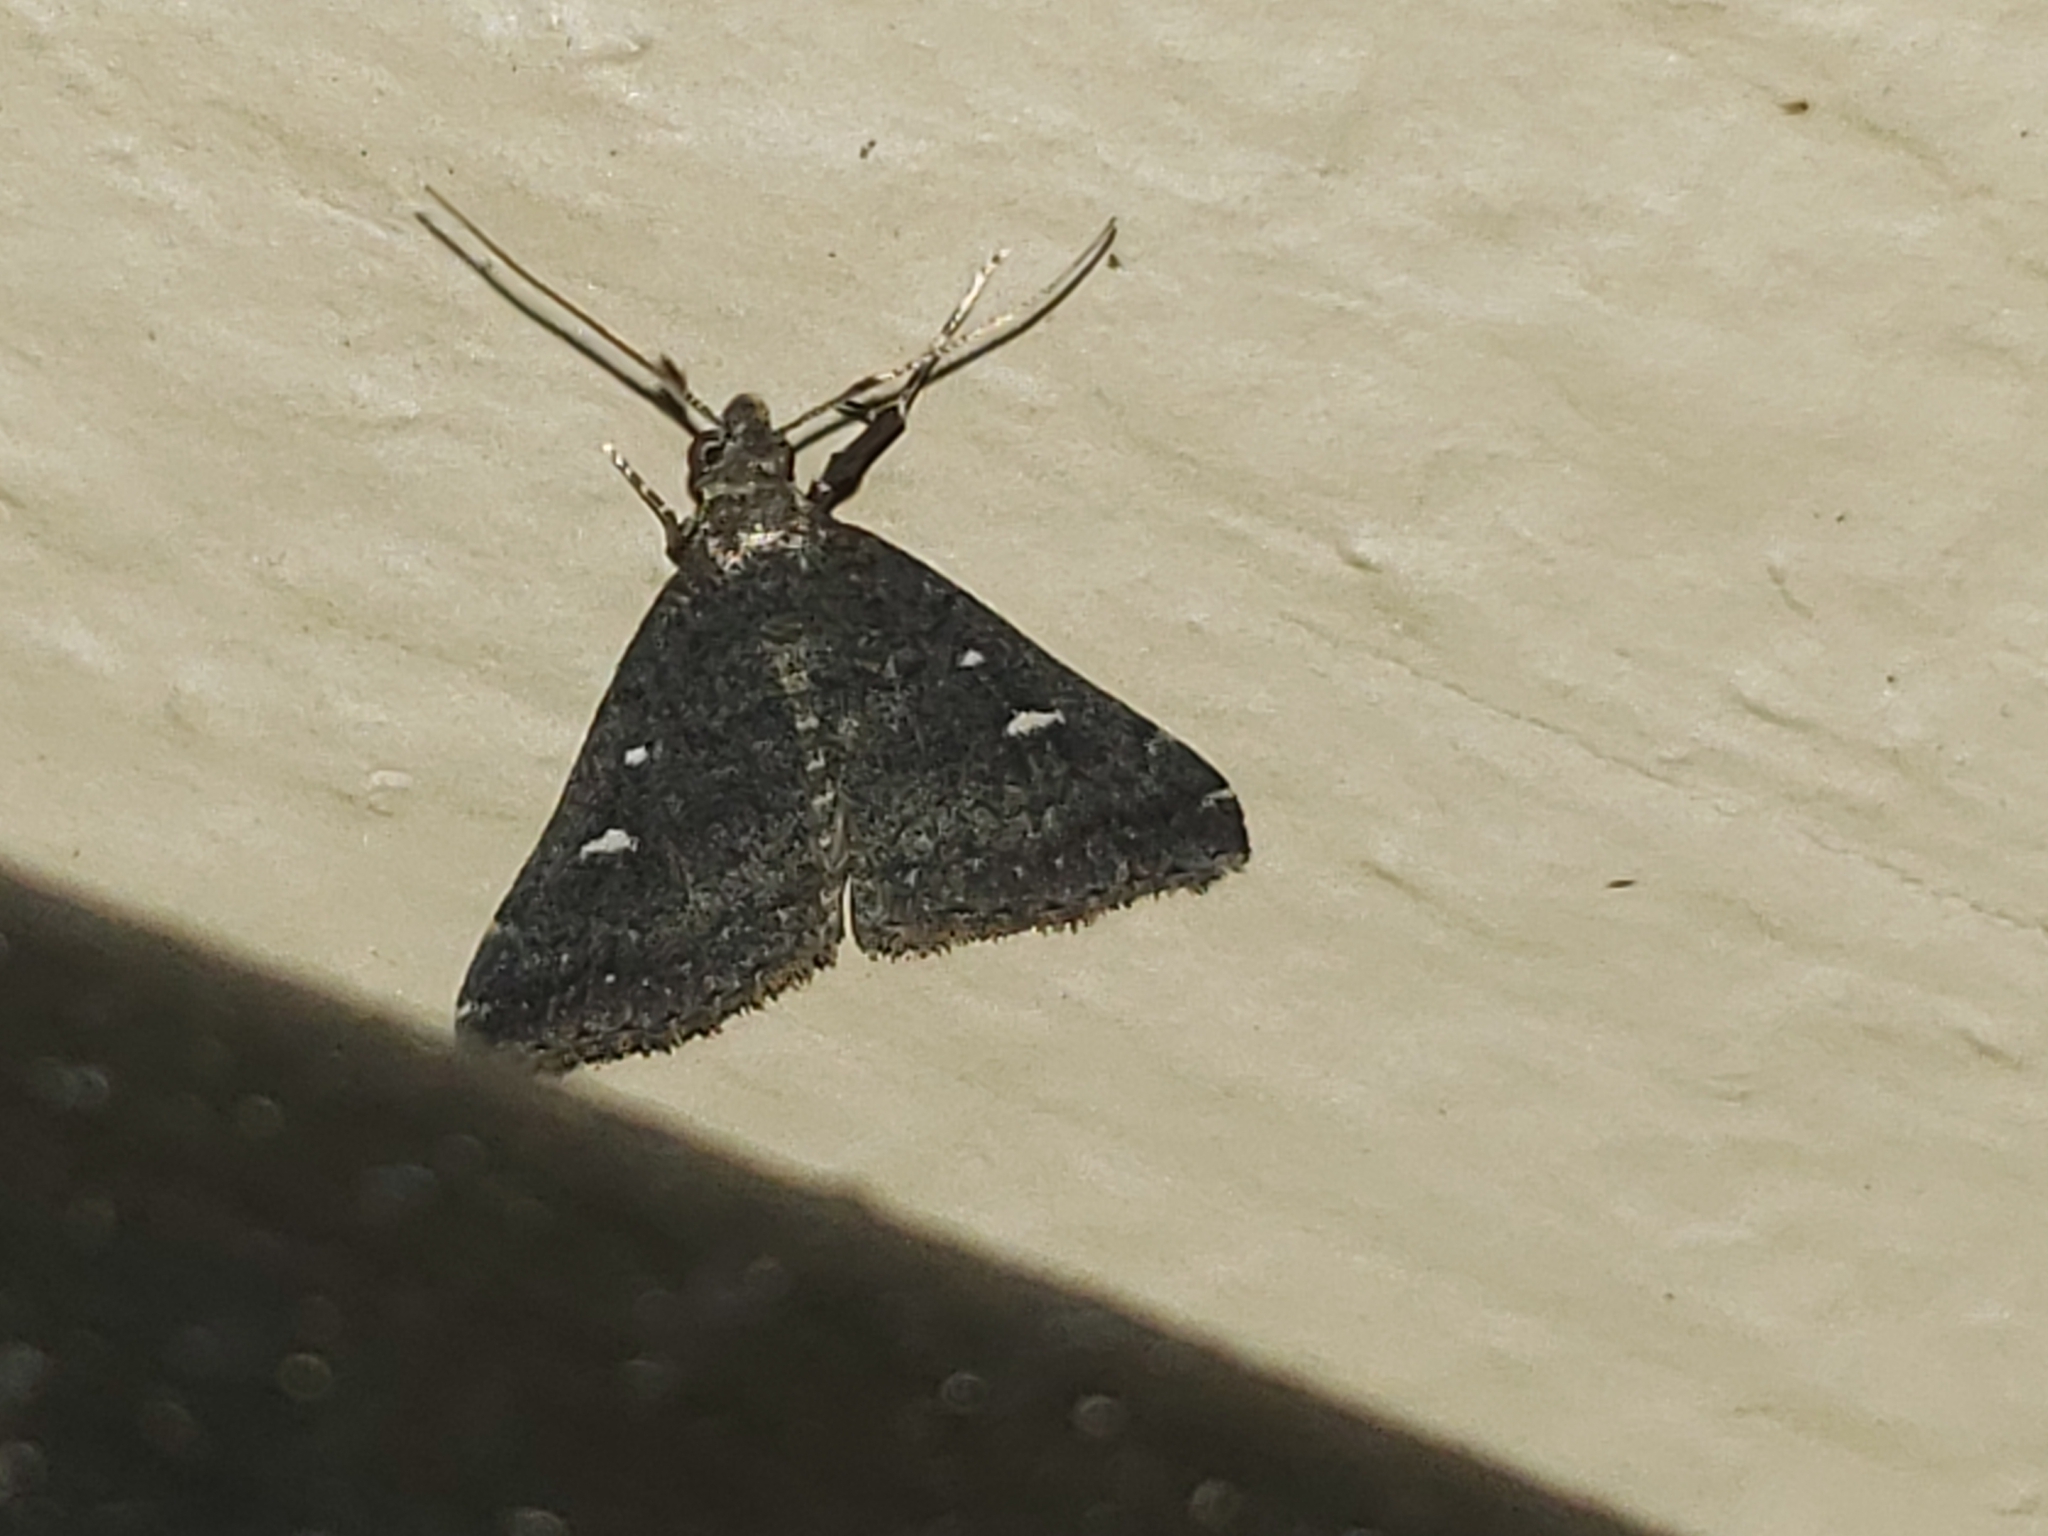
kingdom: Animalia
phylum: Arthropoda
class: Insecta
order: Lepidoptera
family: Erebidae
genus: Tetanolita
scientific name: Tetanolita mynesalis
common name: Smoky tetanolita moth
